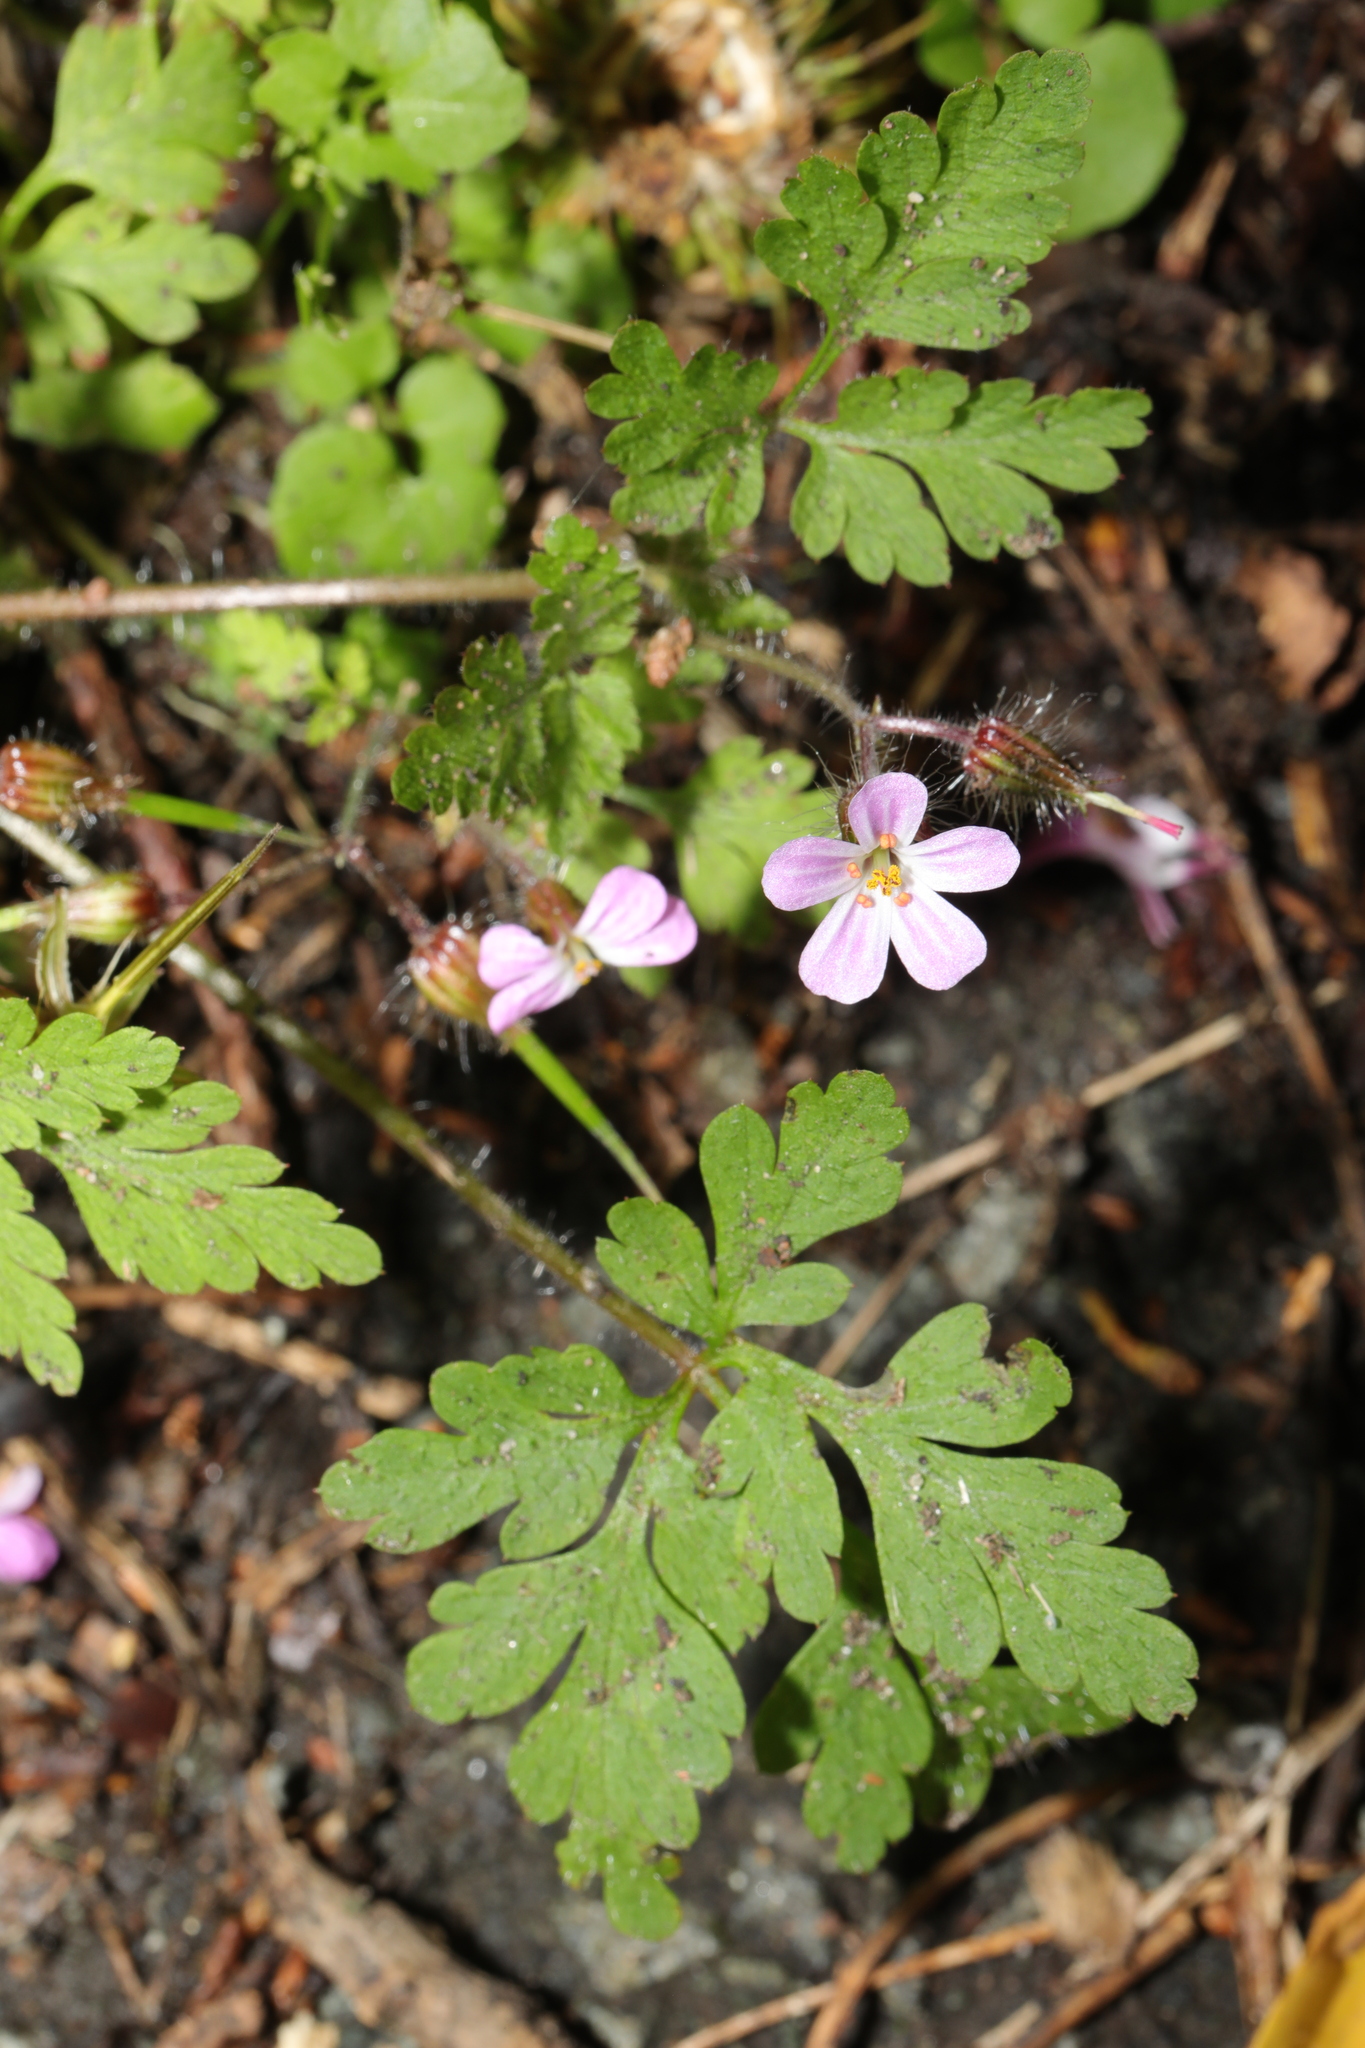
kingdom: Plantae
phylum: Tracheophyta
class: Magnoliopsida
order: Geraniales
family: Geraniaceae
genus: Geranium
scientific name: Geranium robertianum
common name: Herb-robert
